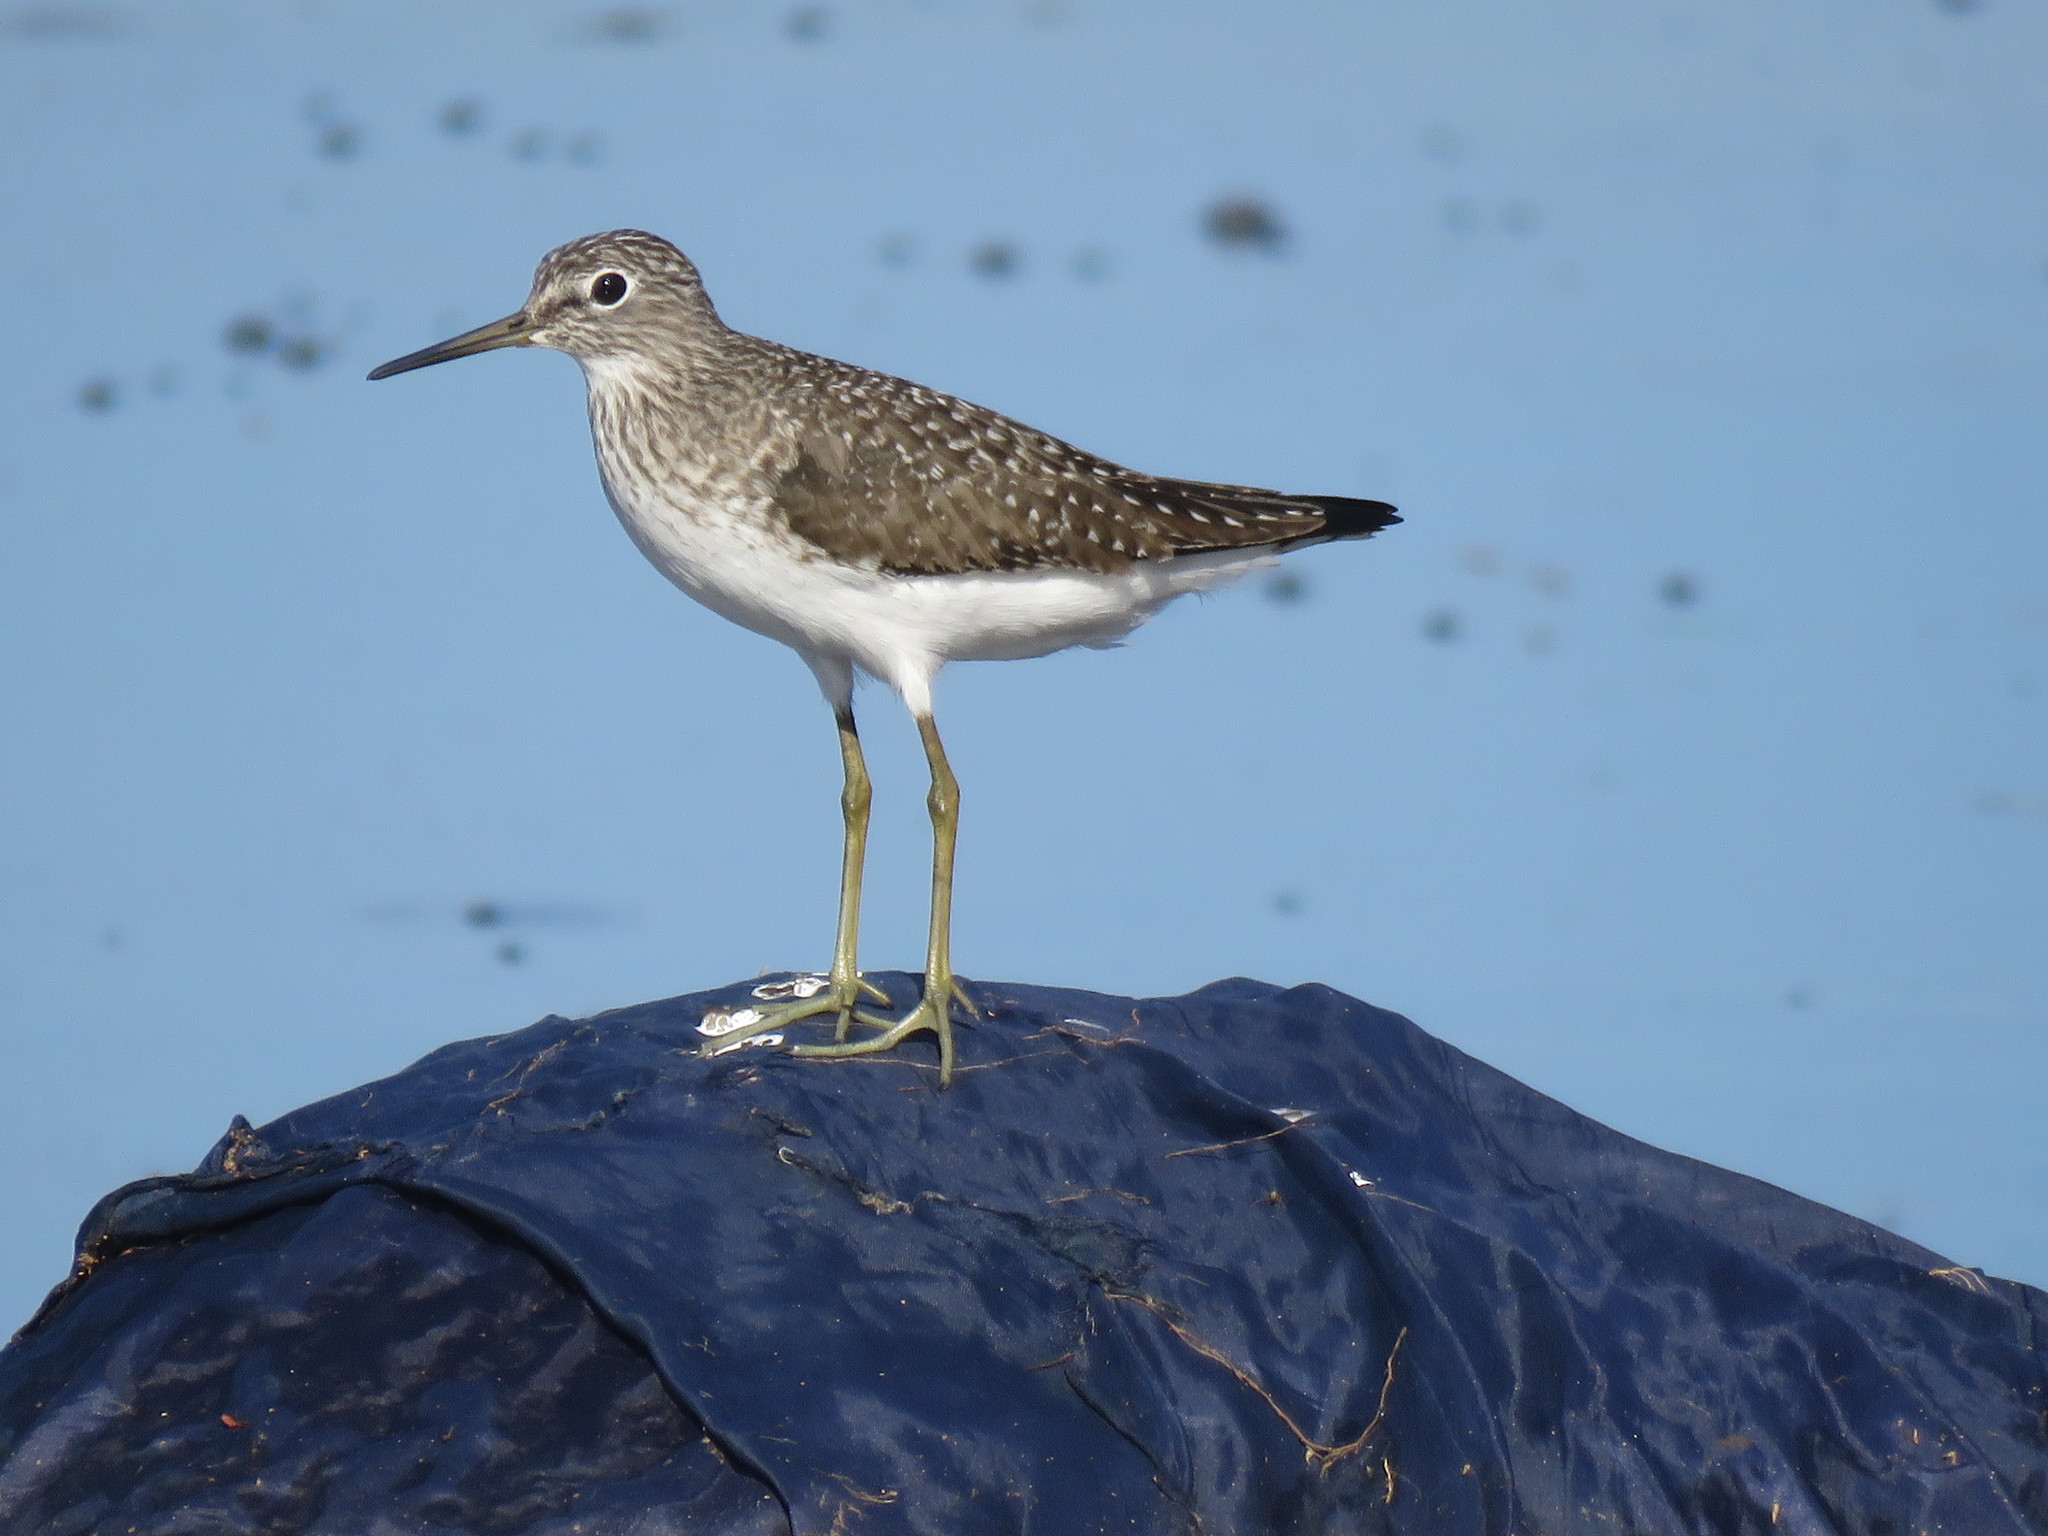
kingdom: Animalia
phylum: Chordata
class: Aves
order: Charadriiformes
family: Scolopacidae
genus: Tringa
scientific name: Tringa solitaria
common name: Solitary sandpiper
